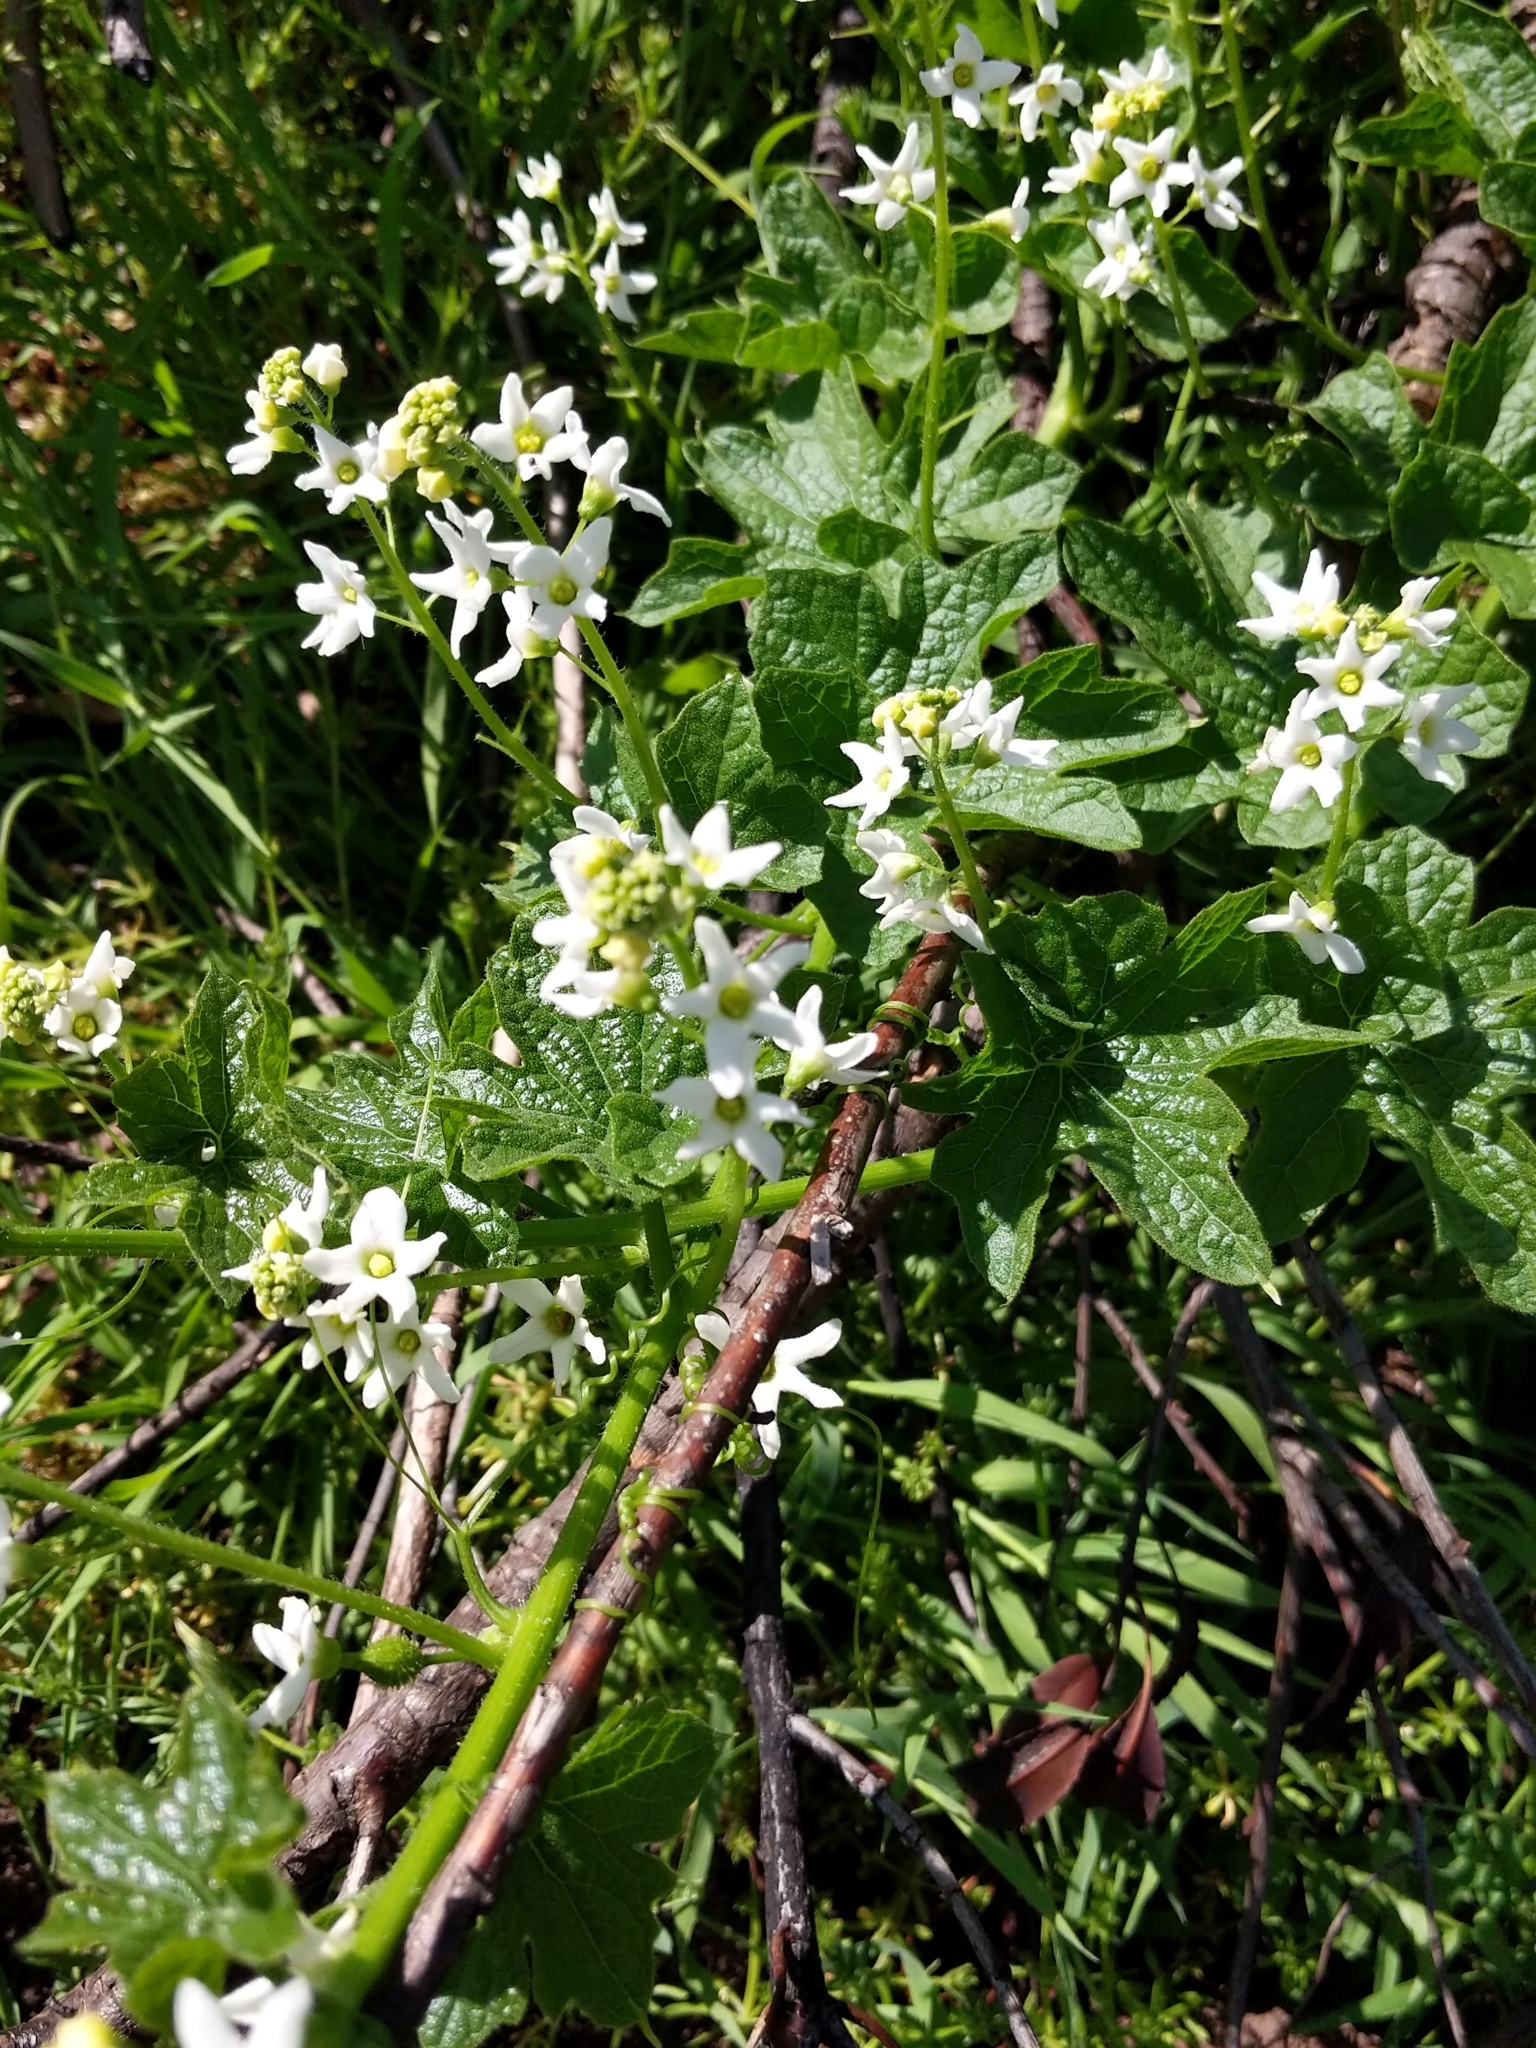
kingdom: Plantae
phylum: Tracheophyta
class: Magnoliopsida
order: Cucurbitales
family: Cucurbitaceae
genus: Marah
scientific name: Marah oregana
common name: Coastal manroot
